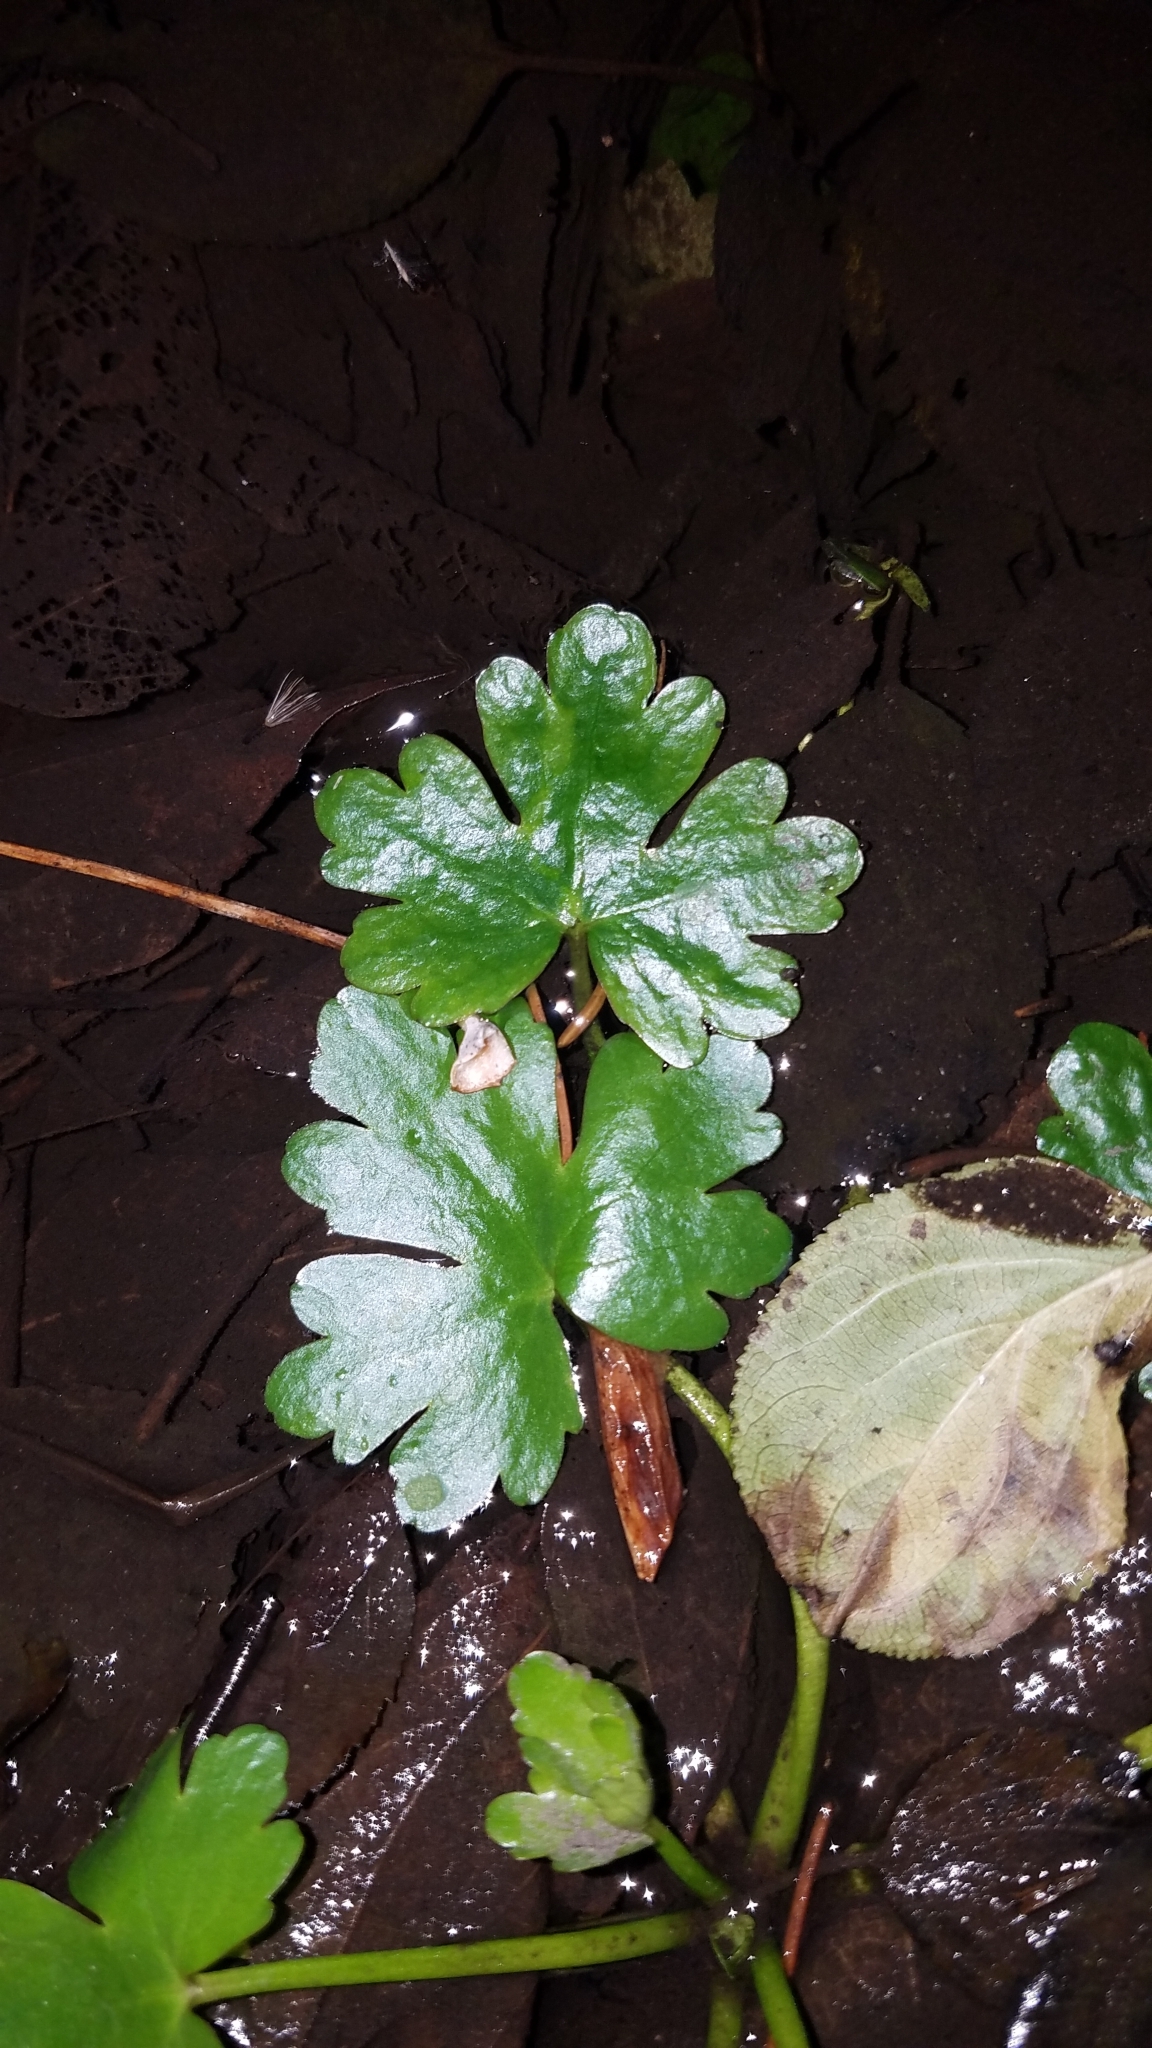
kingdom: Plantae
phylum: Tracheophyta
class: Magnoliopsida
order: Ranunculales
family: Ranunculaceae
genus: Ranunculus
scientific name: Ranunculus sceleratus
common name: Celery-leaved buttercup
